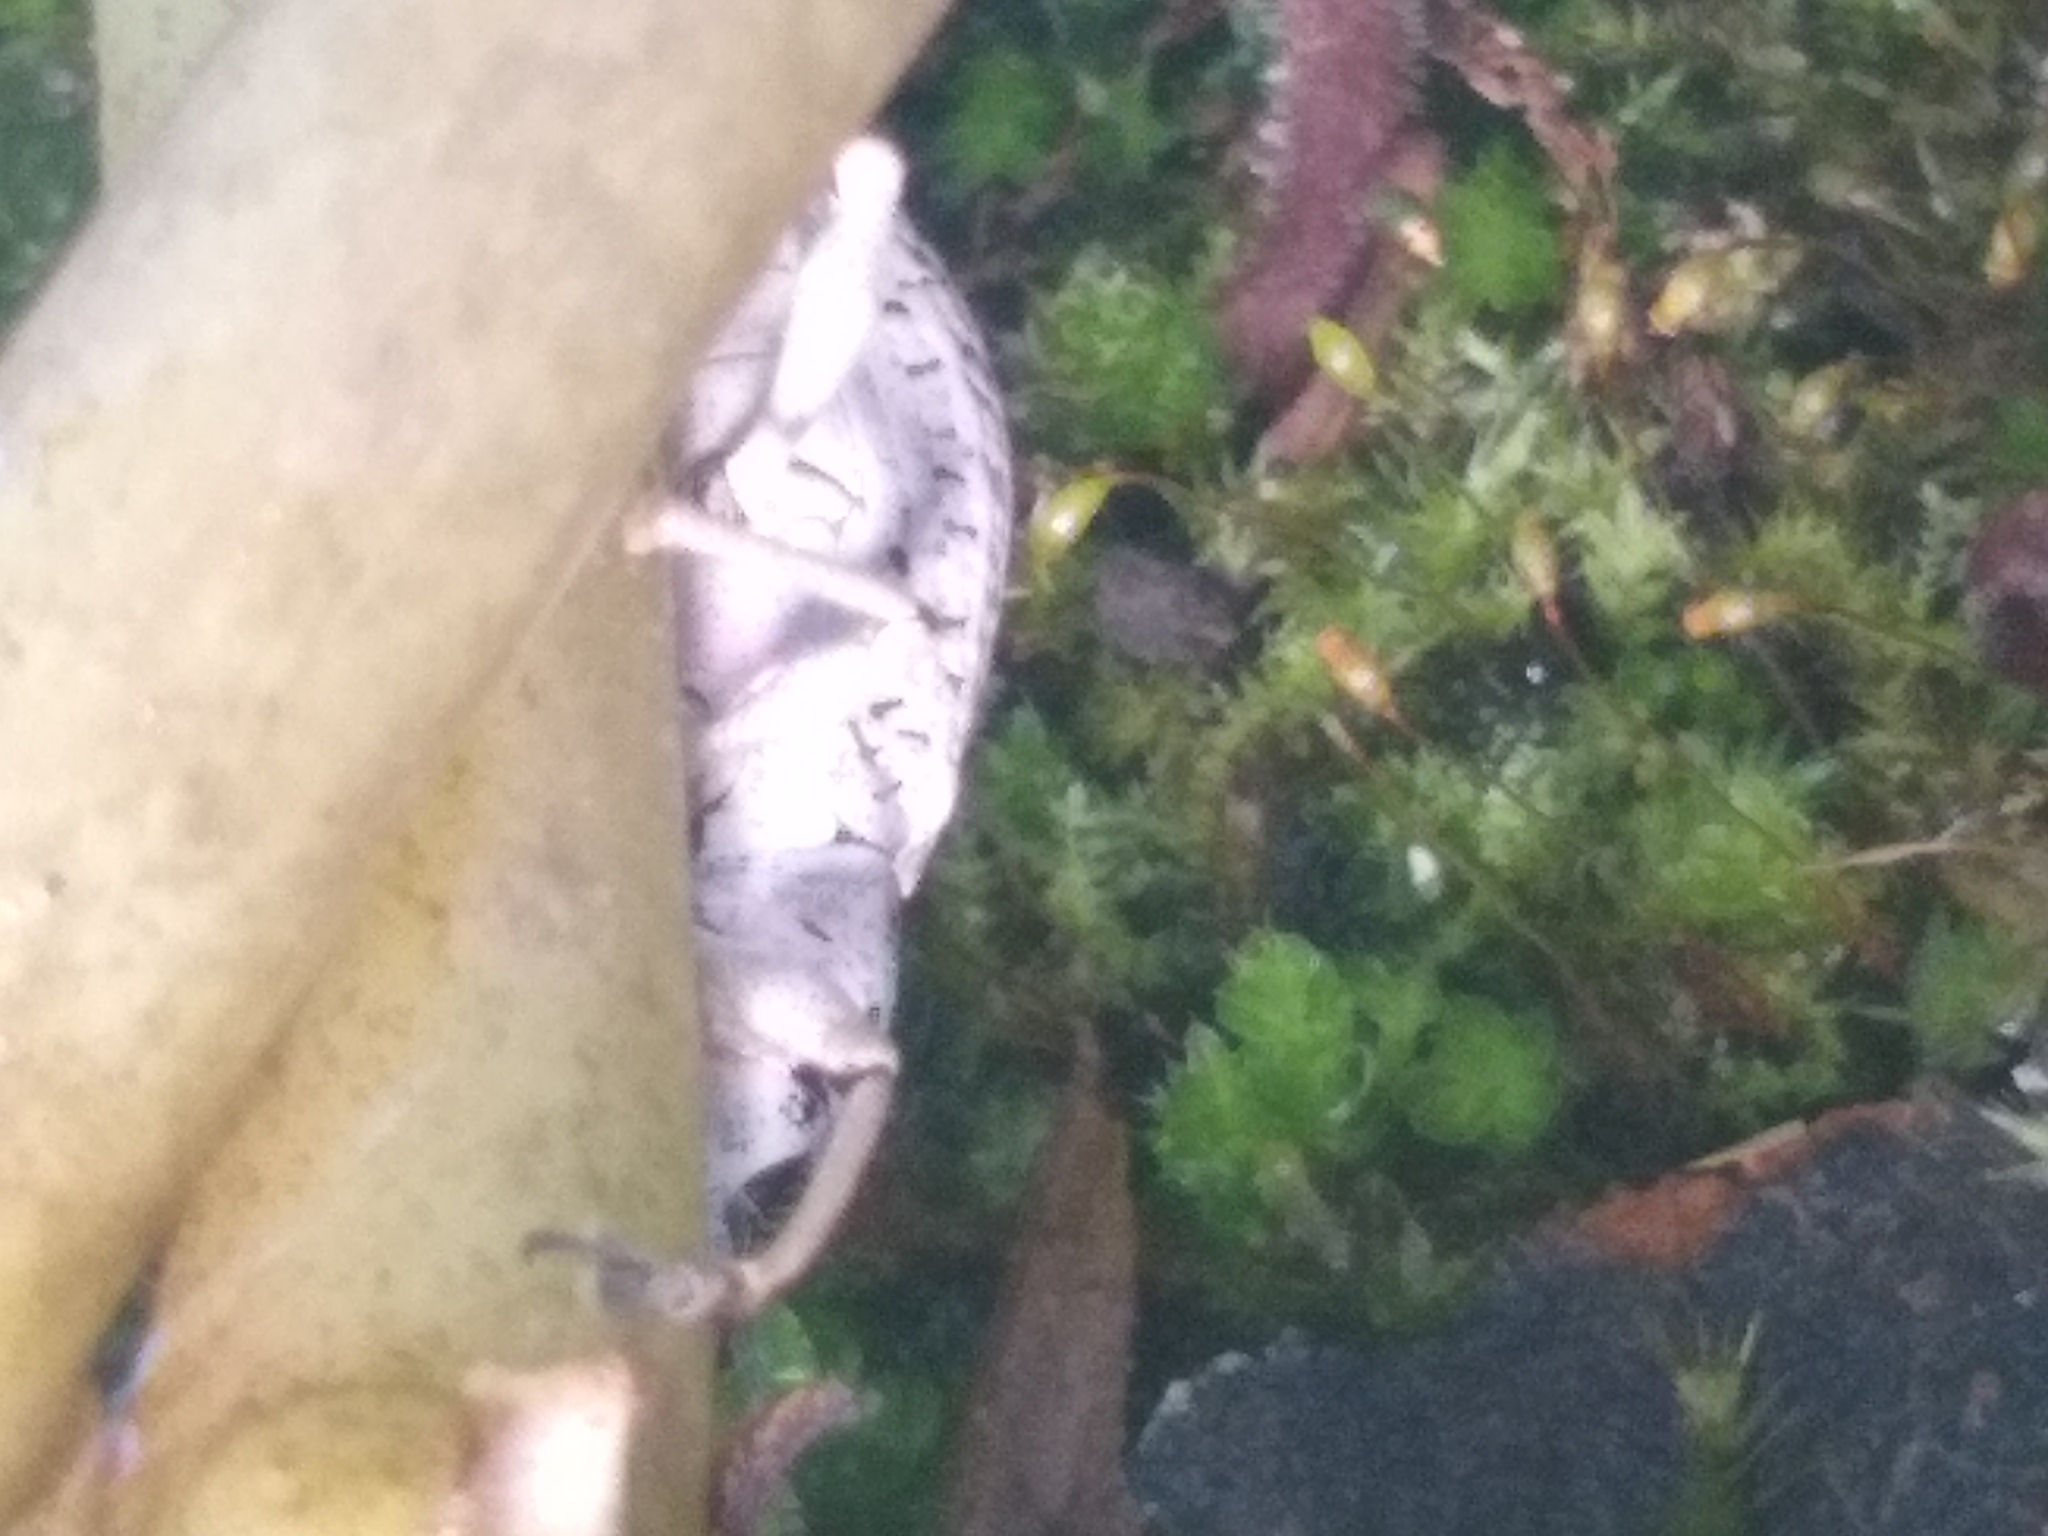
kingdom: Animalia
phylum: Arthropoda
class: Insecta
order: Coleoptera
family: Curculionidae
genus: Exophthalmus
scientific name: Exophthalmus scalptus
